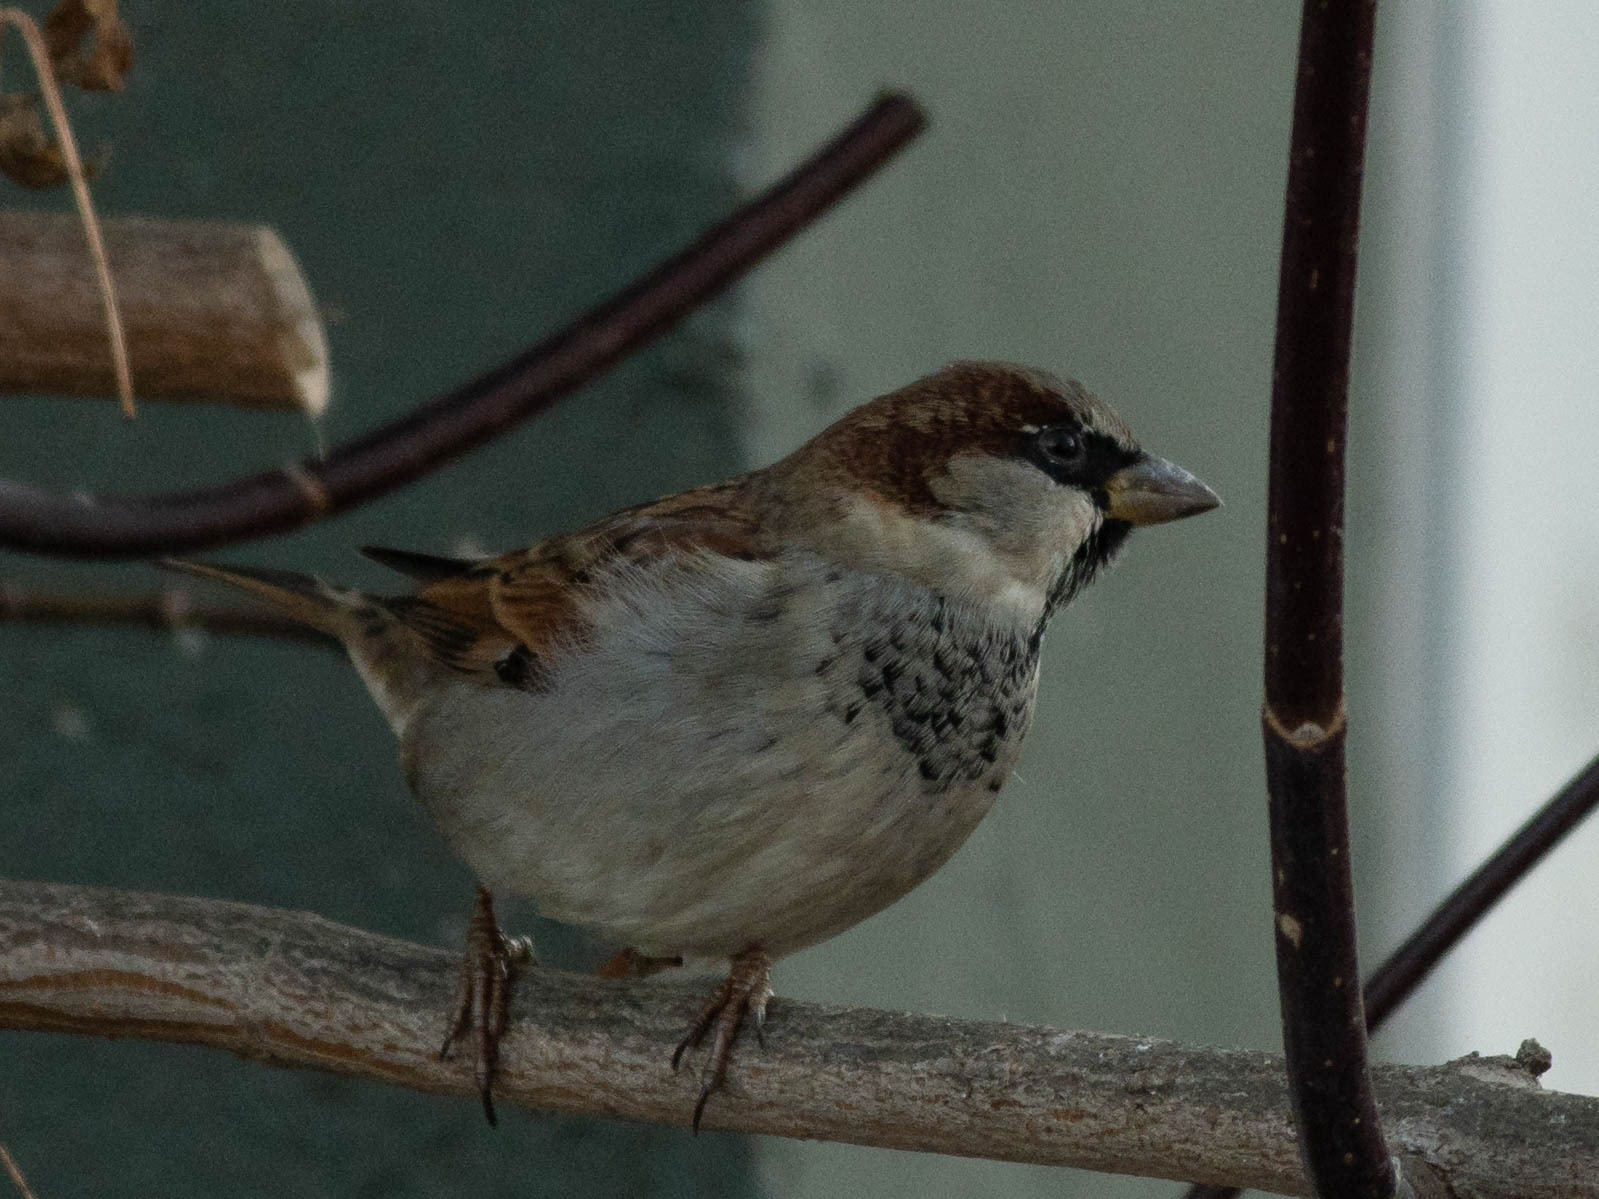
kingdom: Animalia
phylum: Chordata
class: Aves
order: Passeriformes
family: Passeridae
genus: Passer
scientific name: Passer domesticus
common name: House sparrow
